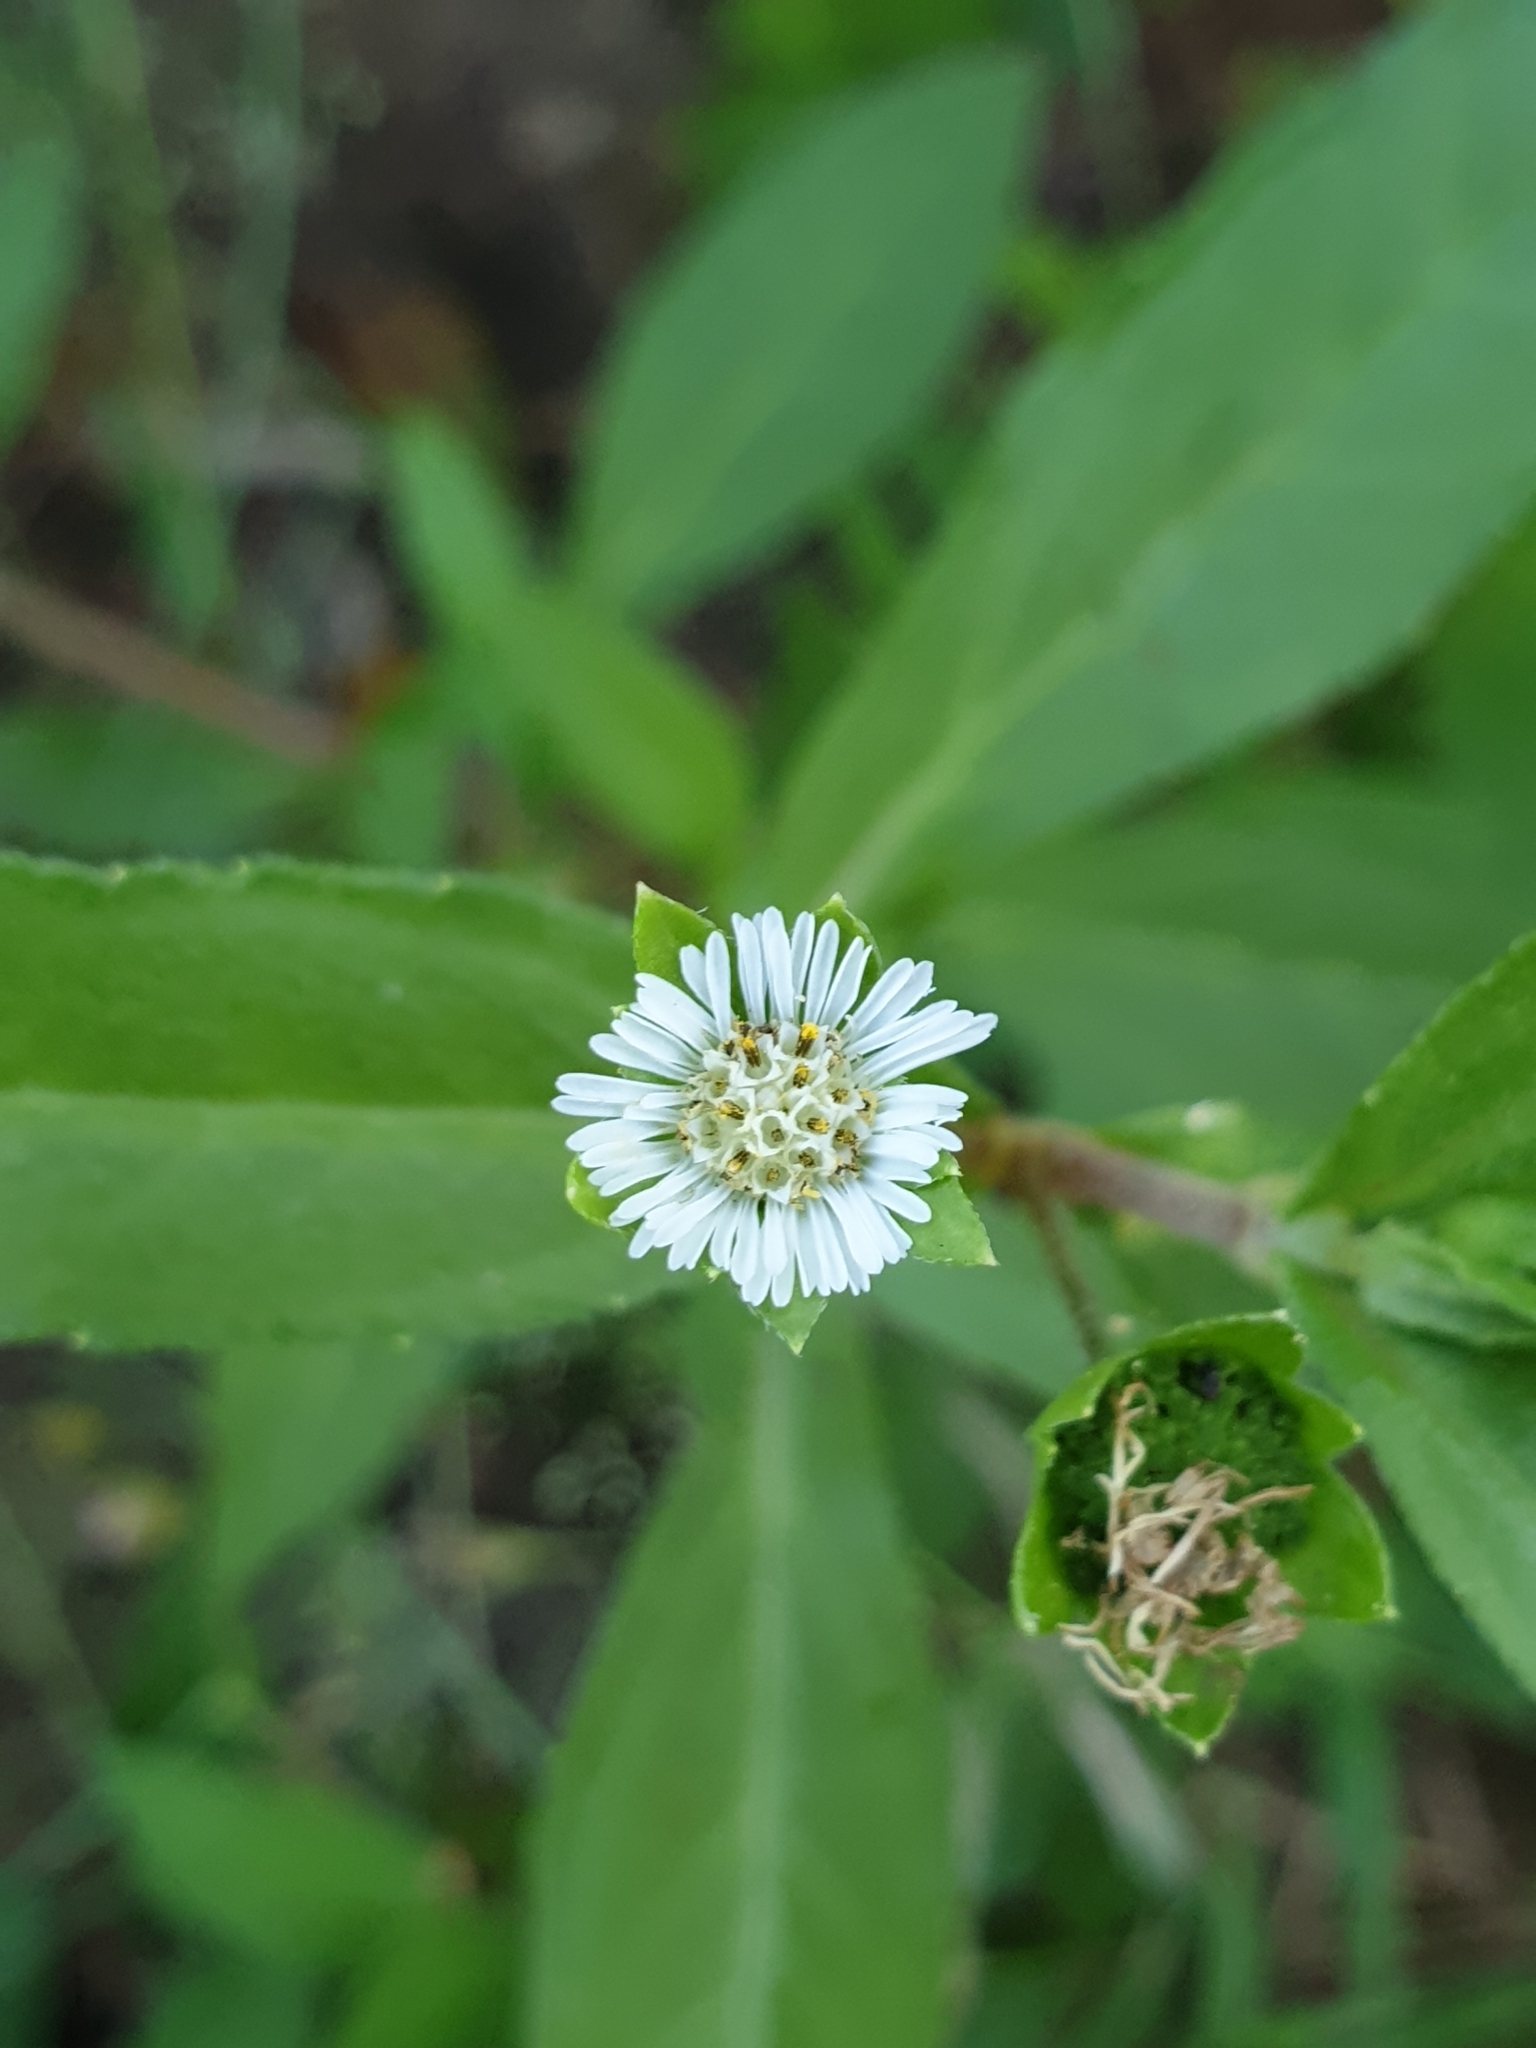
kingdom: Plantae
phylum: Tracheophyta
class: Magnoliopsida
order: Asterales
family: Asteraceae
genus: Eclipta
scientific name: Eclipta prostrata
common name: False daisy
